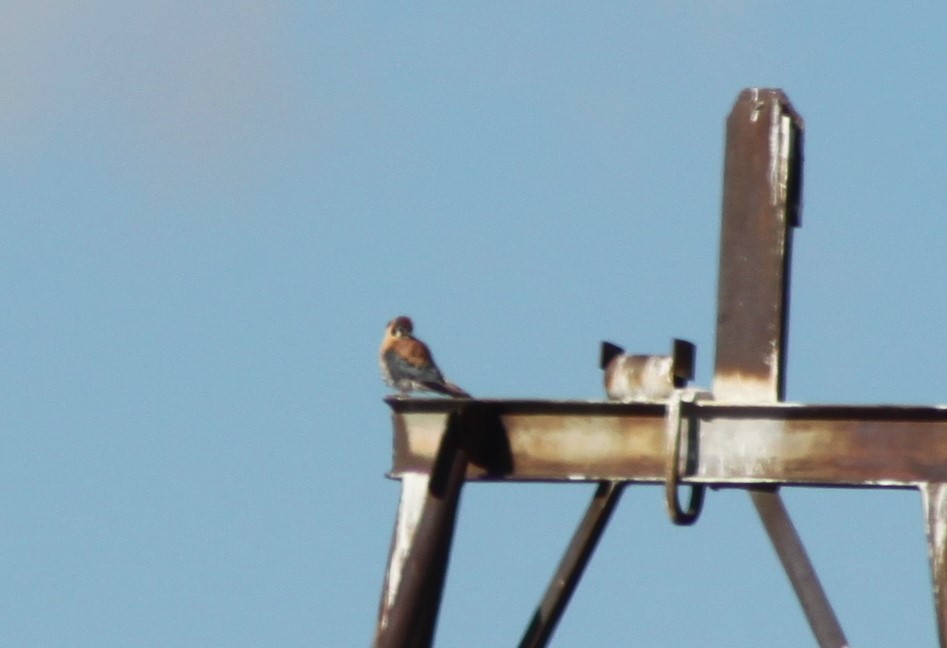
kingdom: Animalia
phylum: Chordata
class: Aves
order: Falconiformes
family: Falconidae
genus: Falco
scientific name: Falco sparverius
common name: American kestrel
